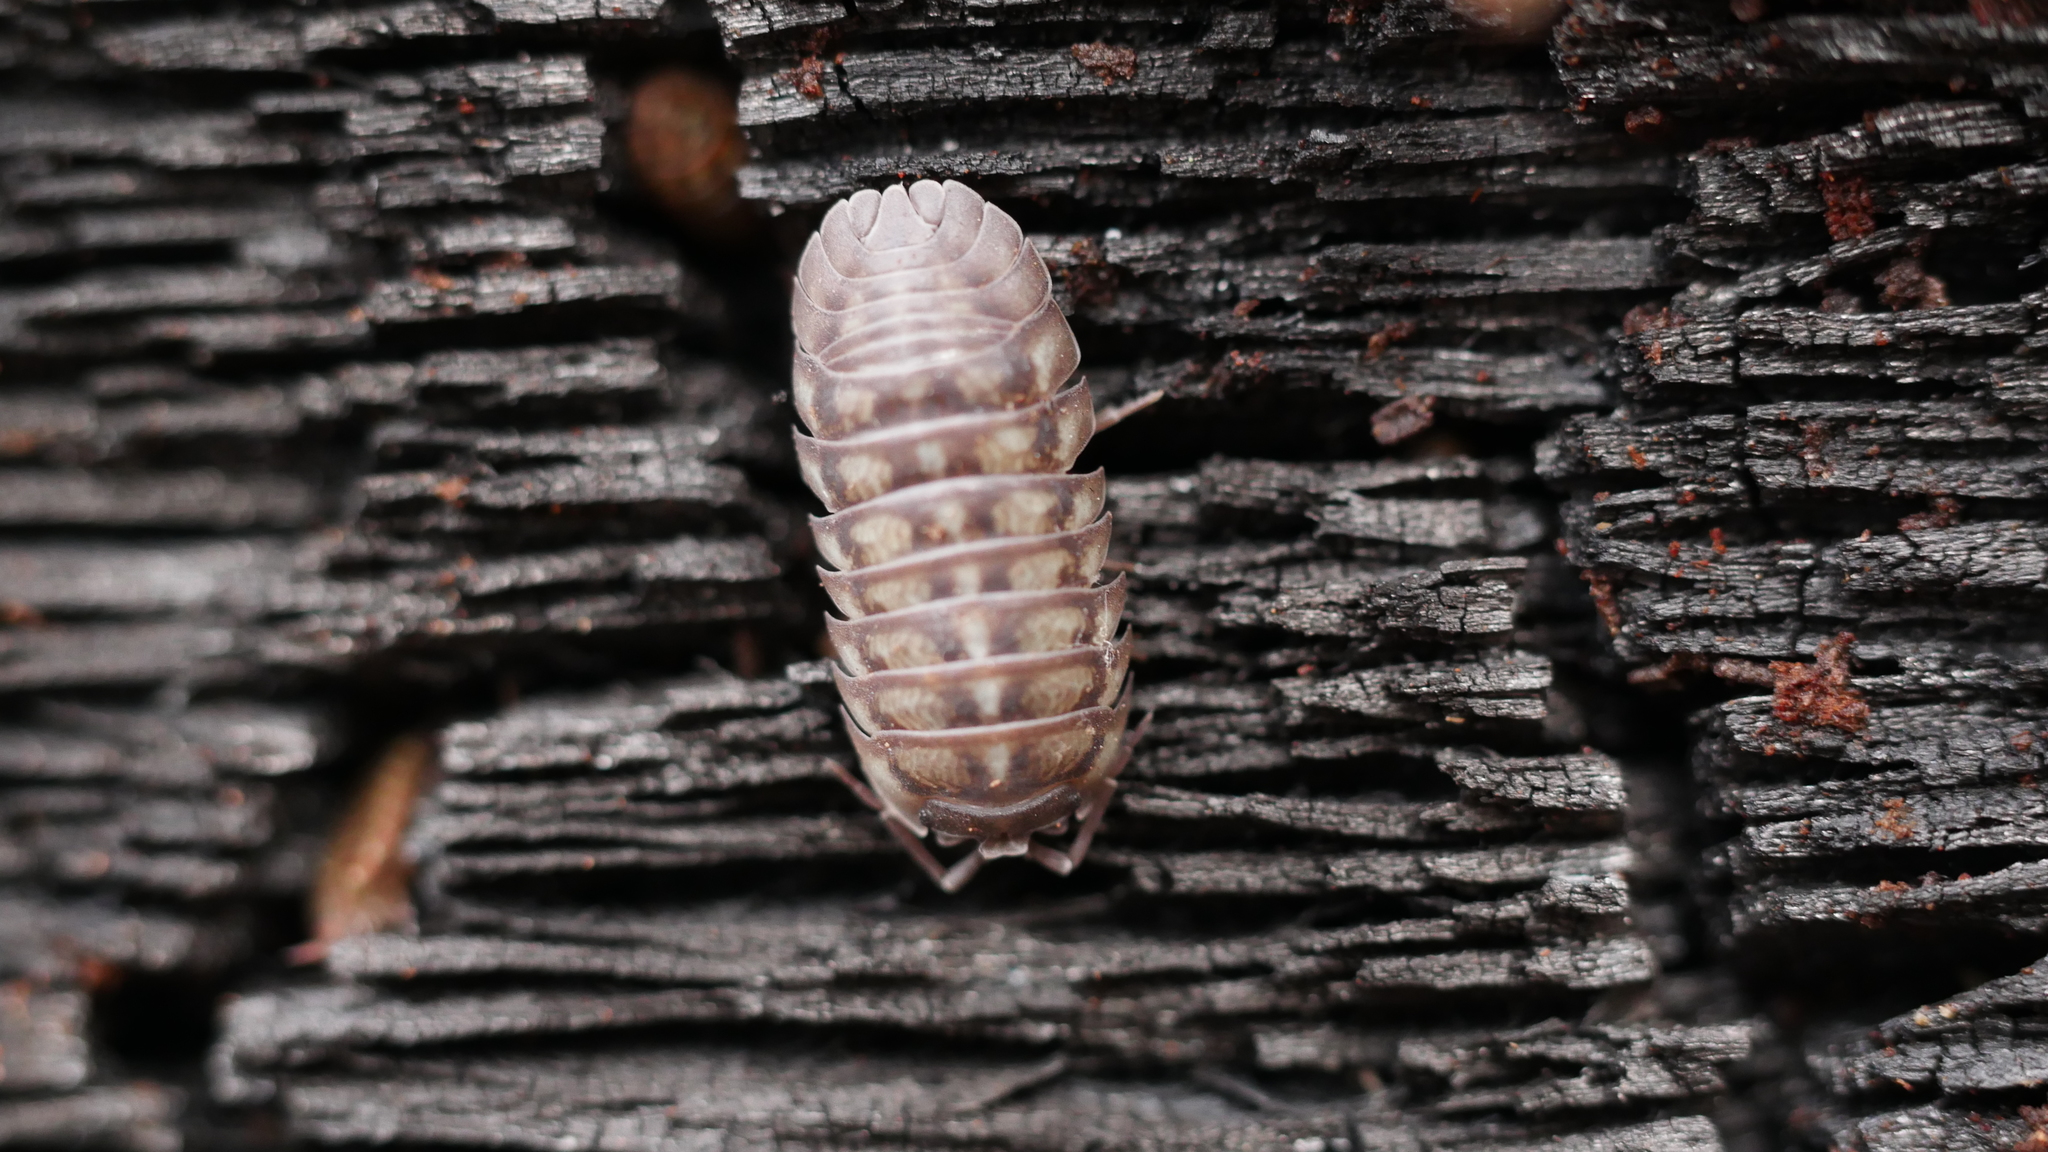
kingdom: Animalia
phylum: Arthropoda
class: Malacostraca
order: Isopoda
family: Armadillidiidae
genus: Armadillidium
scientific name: Armadillidium nasatum
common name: Isopod
